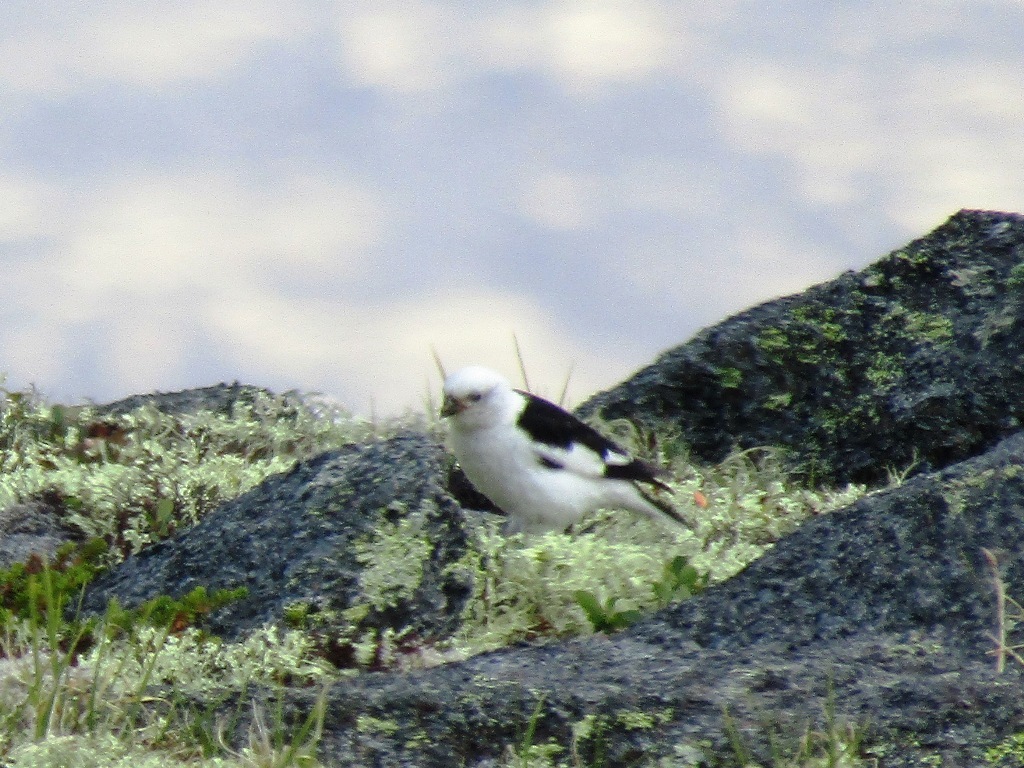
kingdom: Animalia
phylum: Chordata
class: Aves
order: Passeriformes
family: Calcariidae
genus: Plectrophenax
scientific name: Plectrophenax nivalis
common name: Snow bunting
